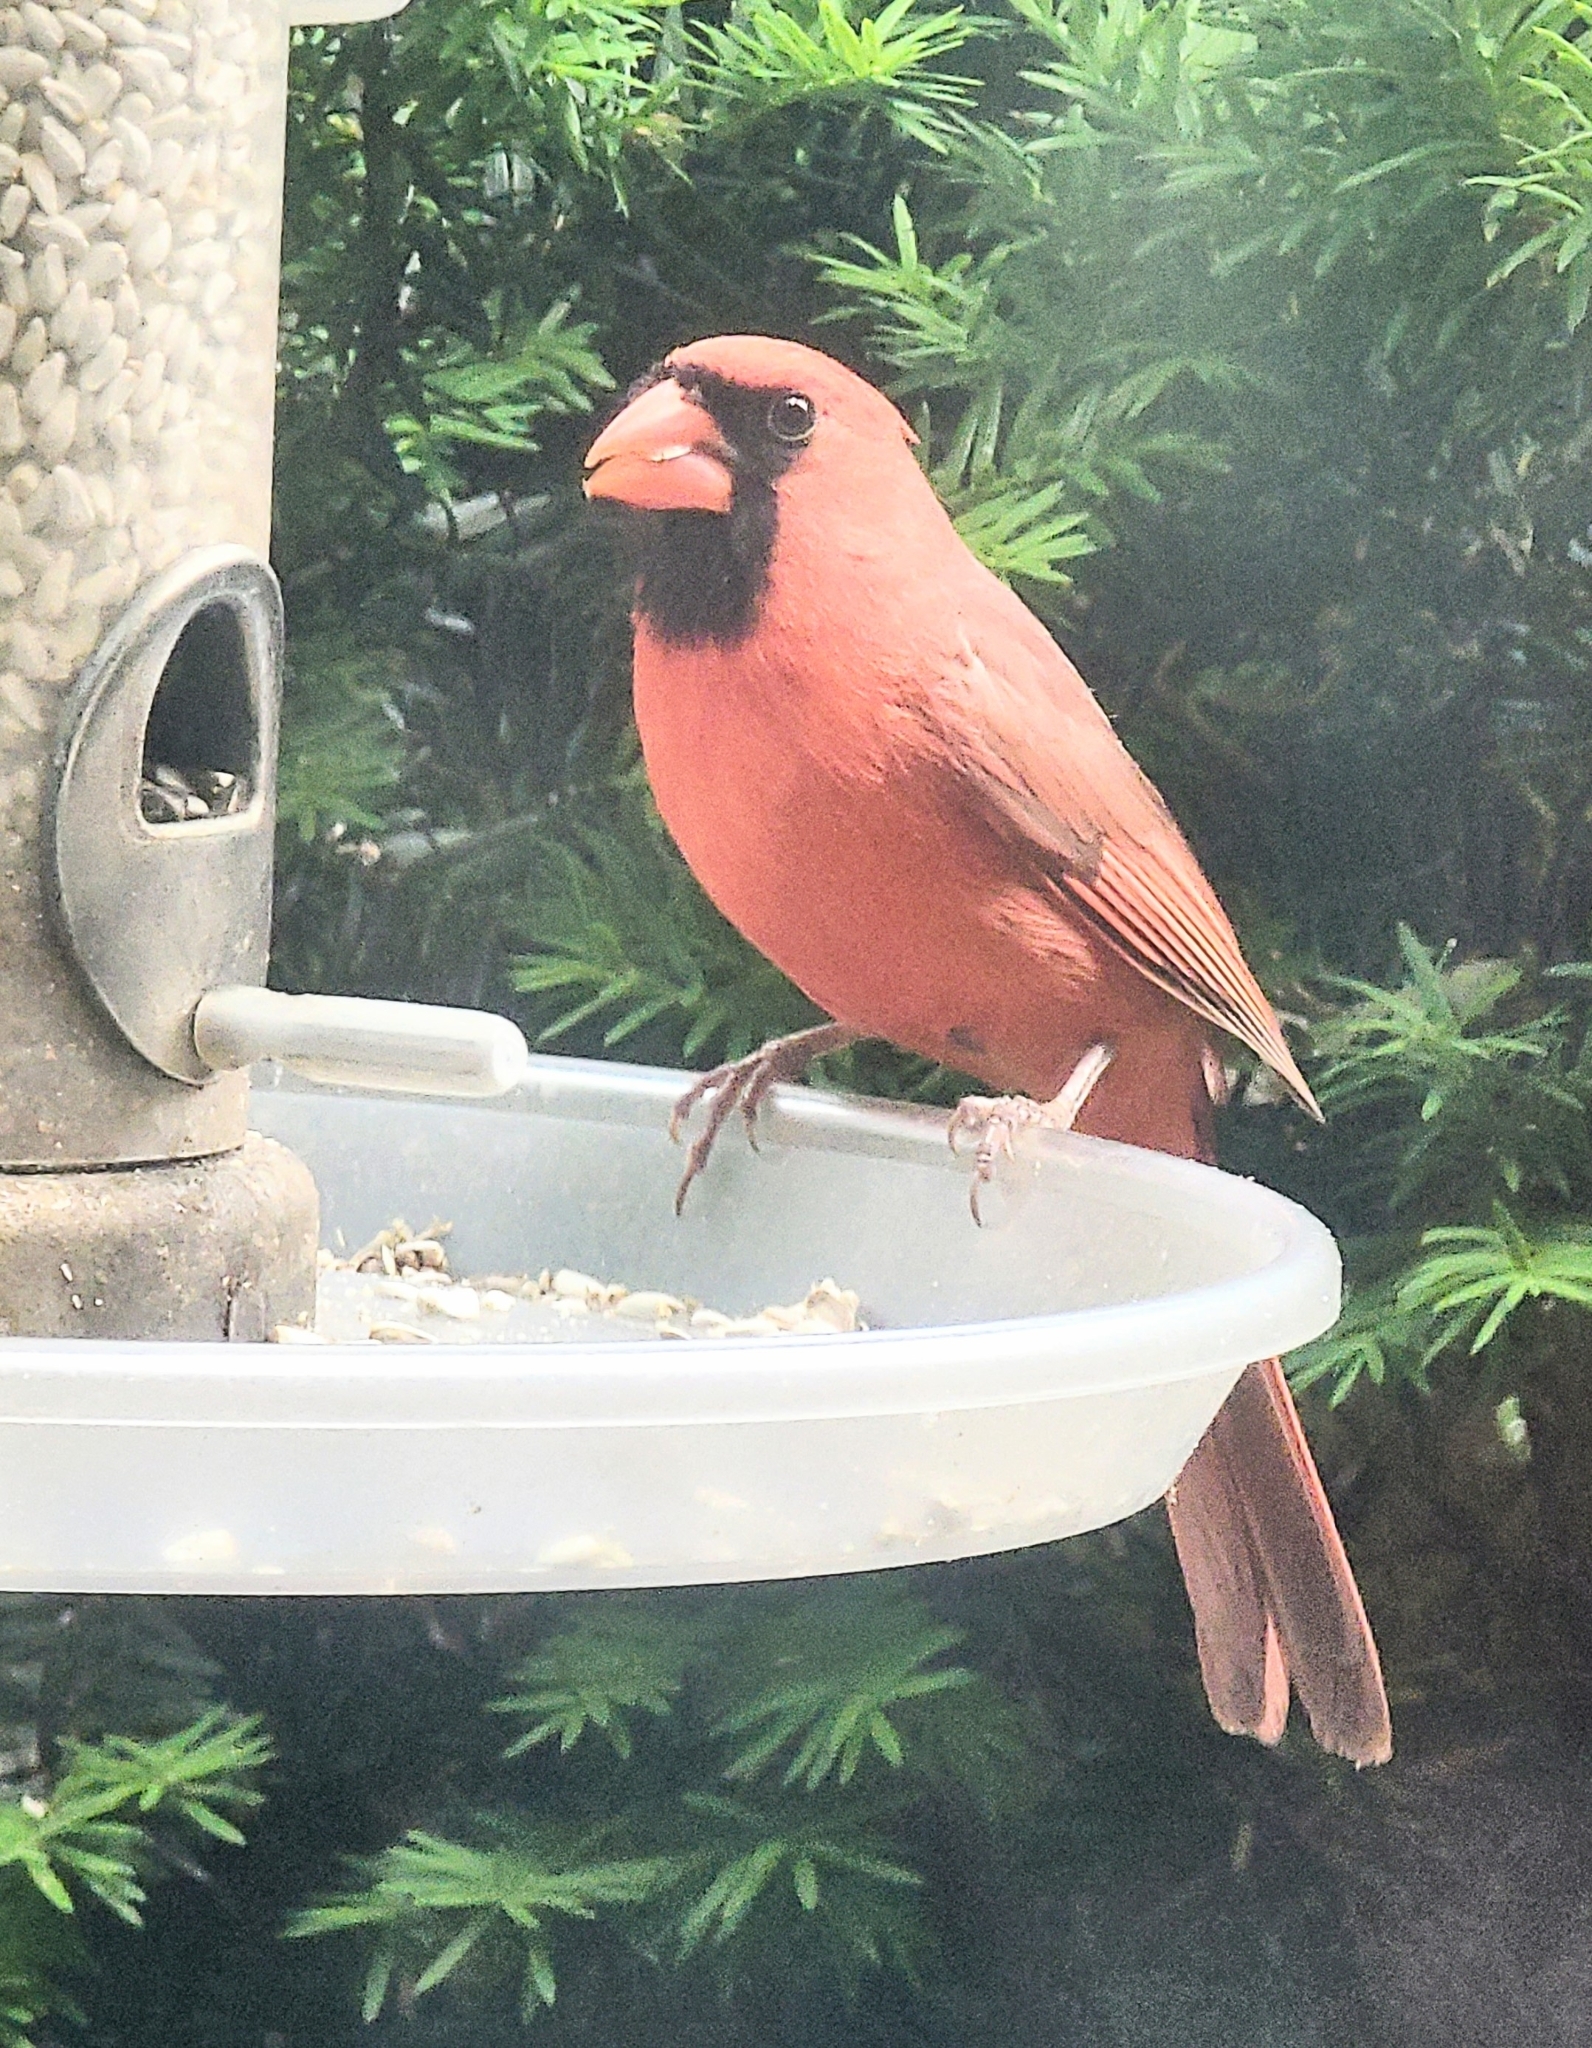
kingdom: Animalia
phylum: Chordata
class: Aves
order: Passeriformes
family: Cardinalidae
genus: Cardinalis
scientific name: Cardinalis cardinalis
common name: Northern cardinal
